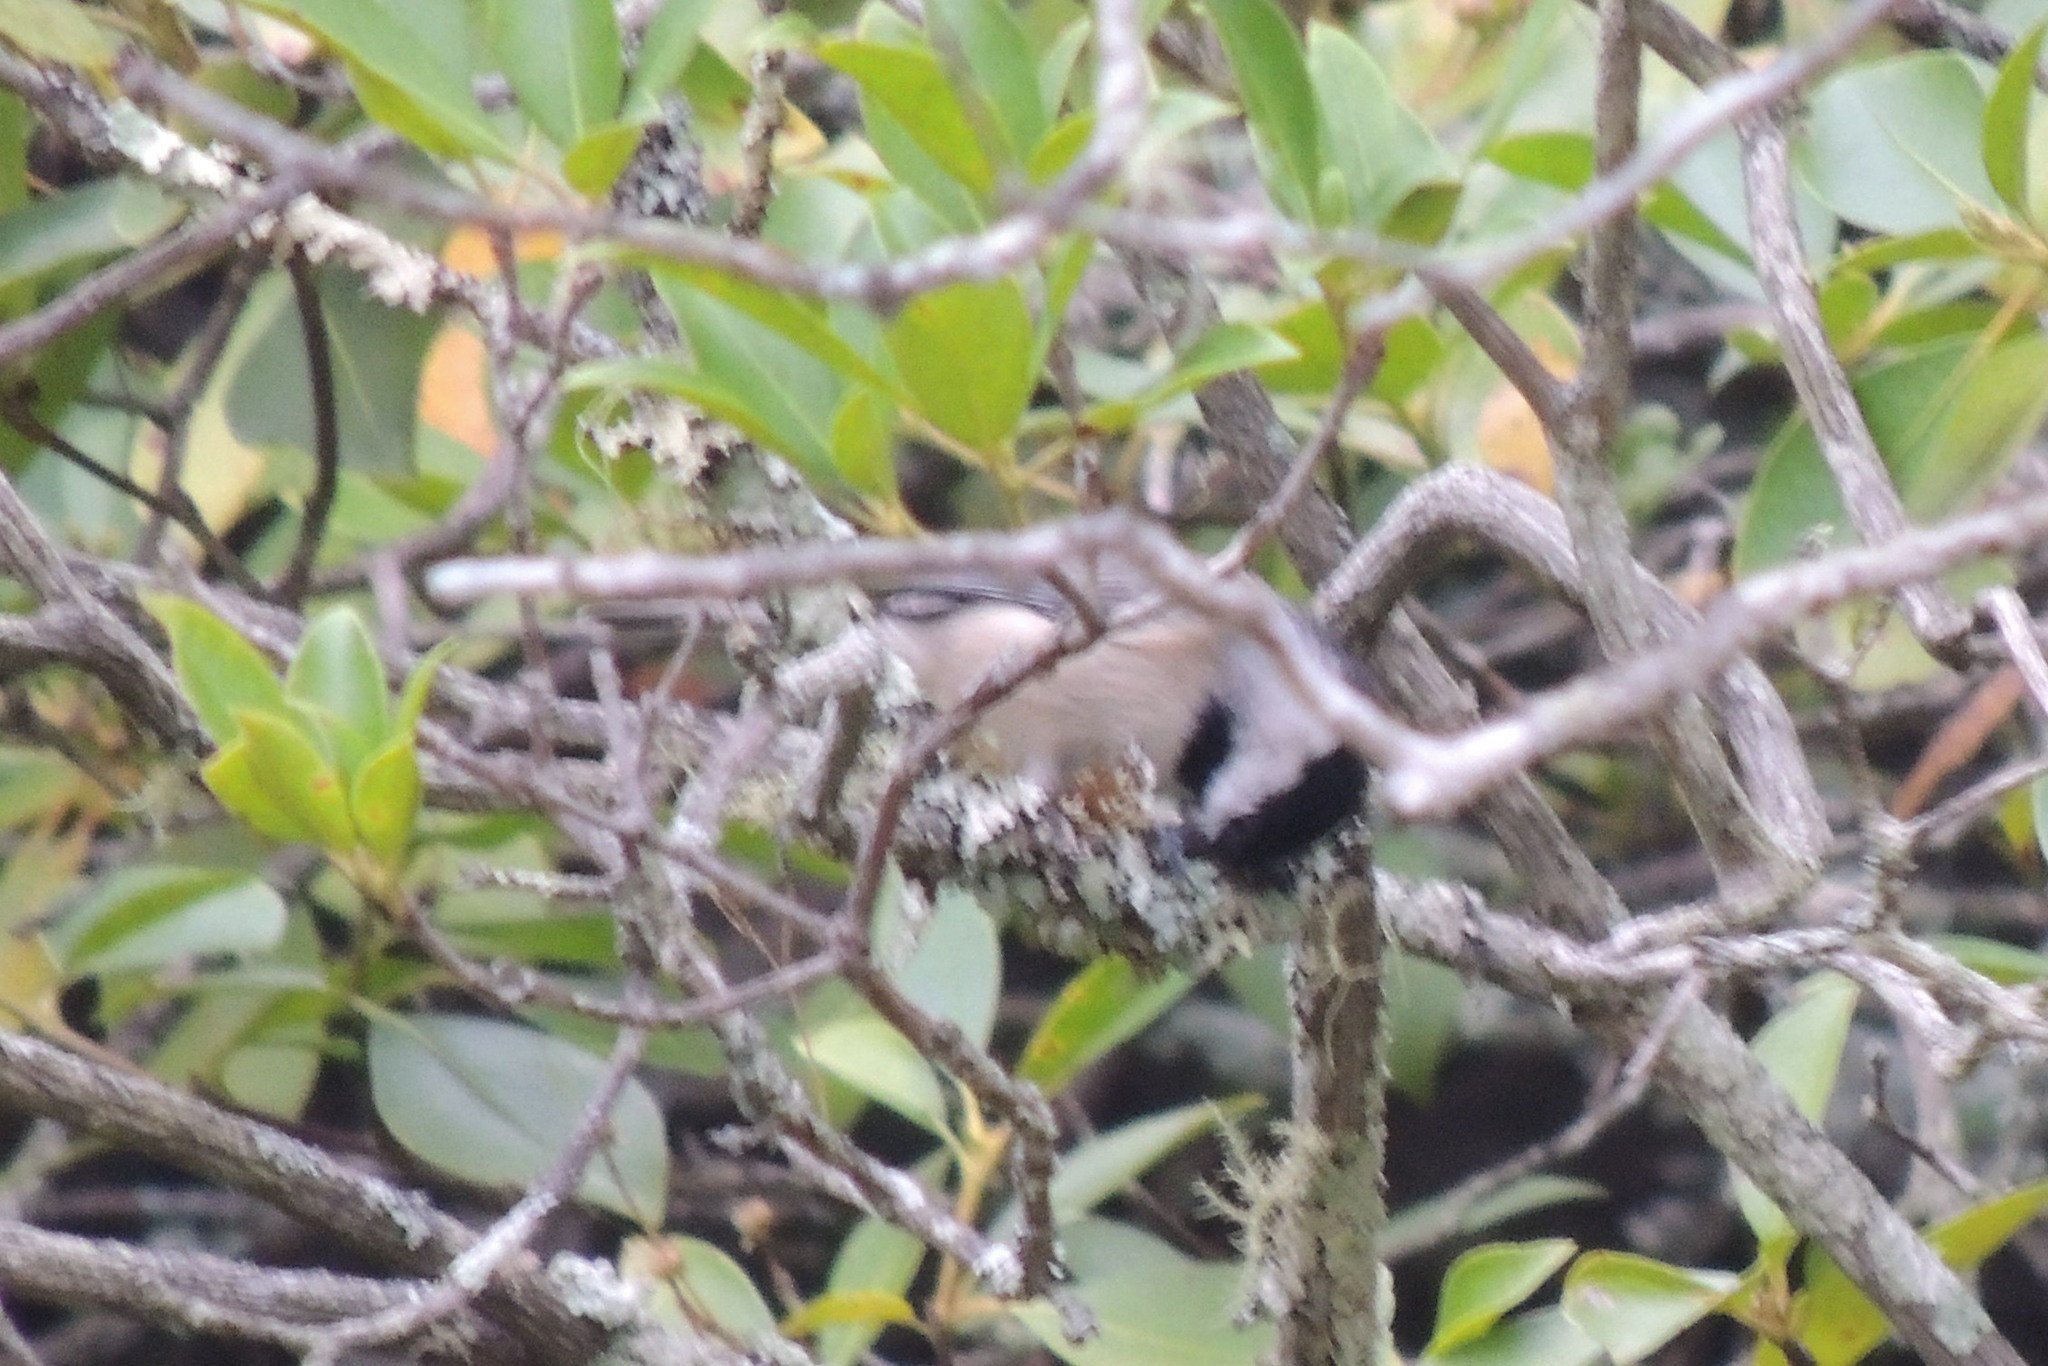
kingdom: Animalia
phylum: Chordata
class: Aves
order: Passeriformes
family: Paridae
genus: Poecile
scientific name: Poecile carolinensis
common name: Carolina chickadee
